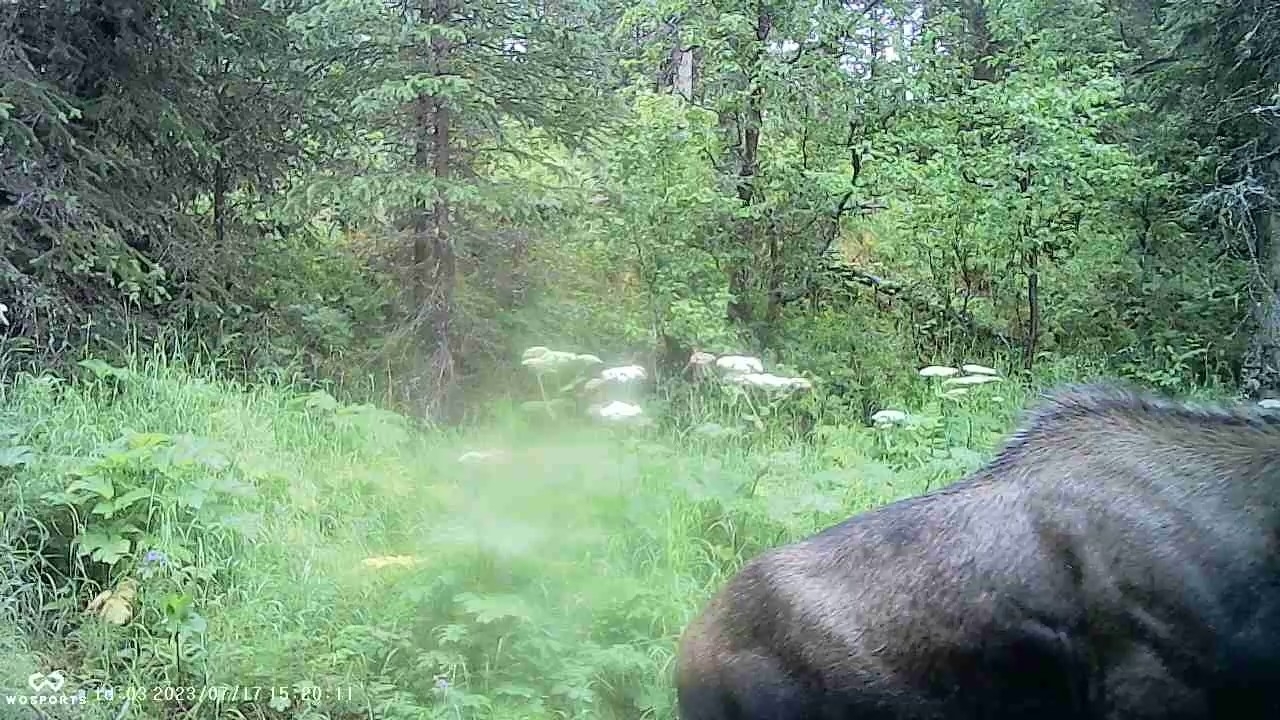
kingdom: Animalia
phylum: Chordata
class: Mammalia
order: Artiodactyla
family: Cervidae
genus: Alces
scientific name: Alces alces
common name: Moose
